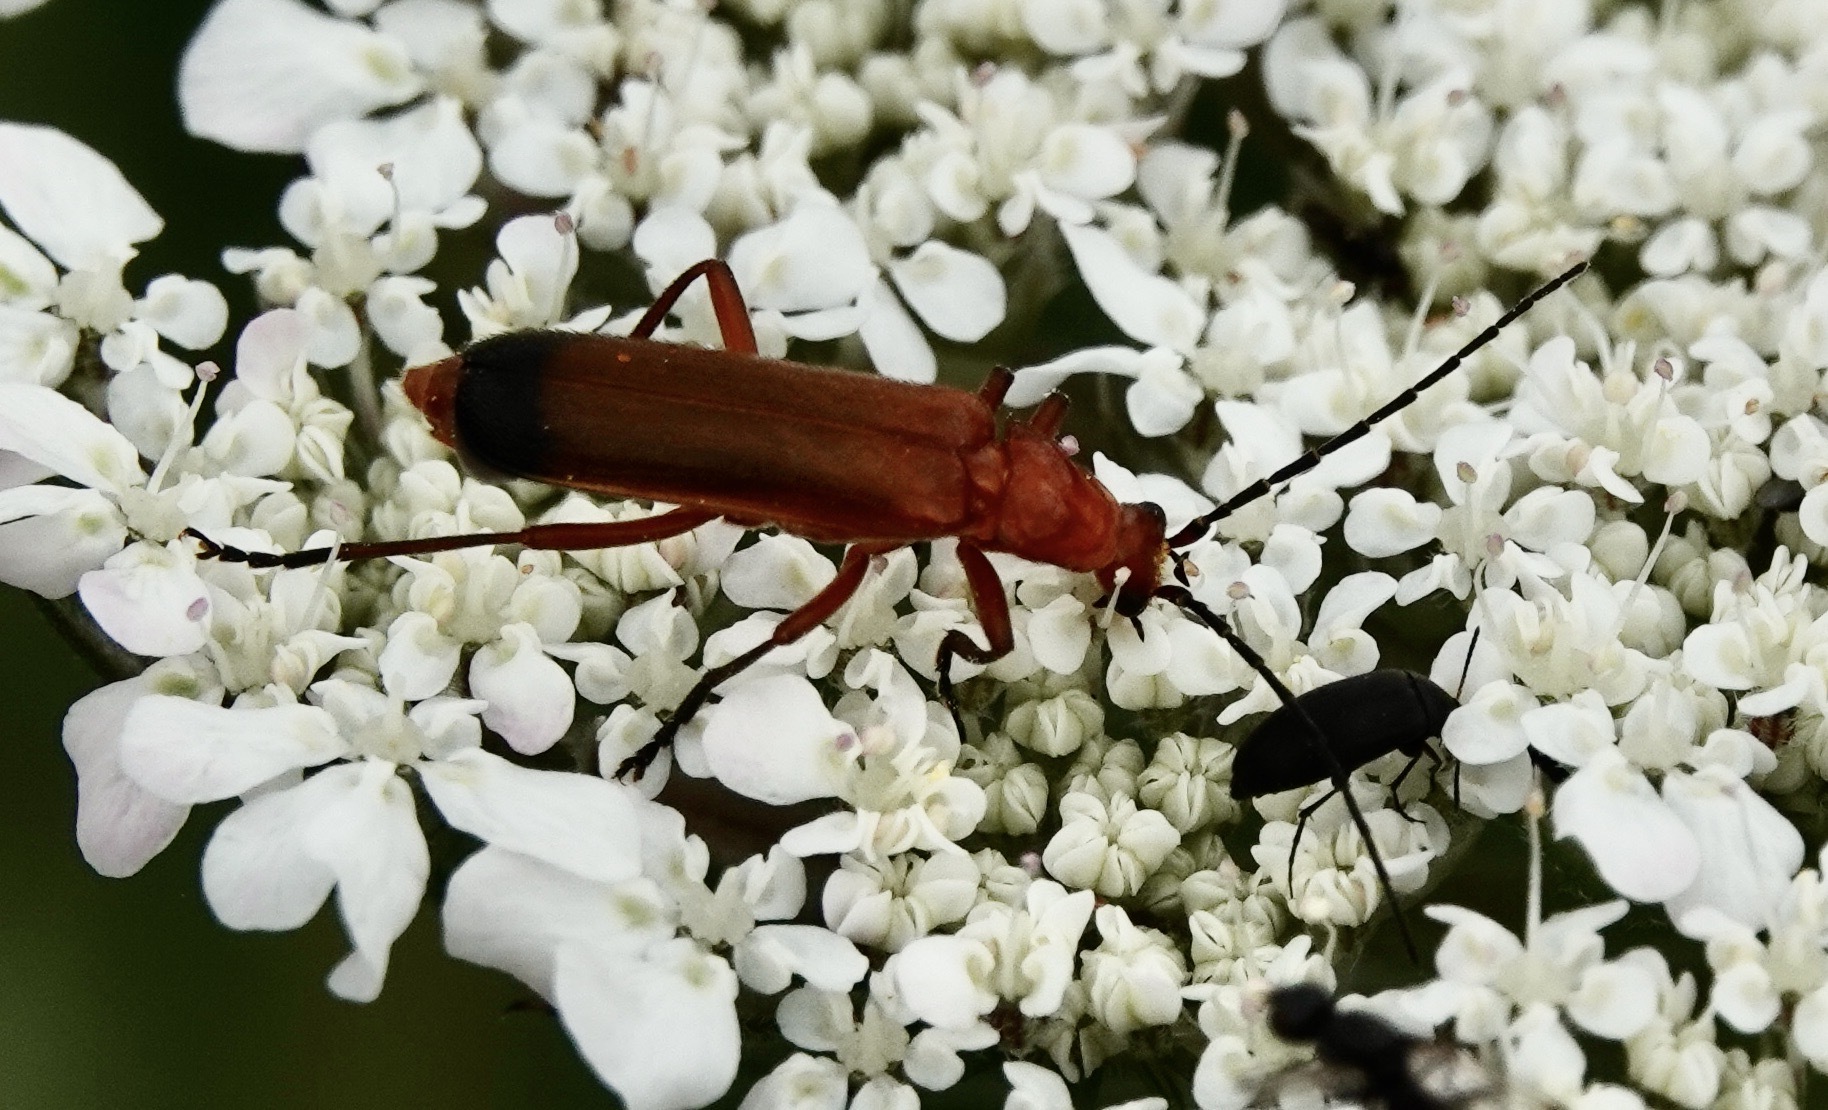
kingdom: Animalia
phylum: Arthropoda
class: Insecta
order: Coleoptera
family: Cantharidae
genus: Rhagonycha
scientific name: Rhagonycha fulva
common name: Common red soldier beetle
